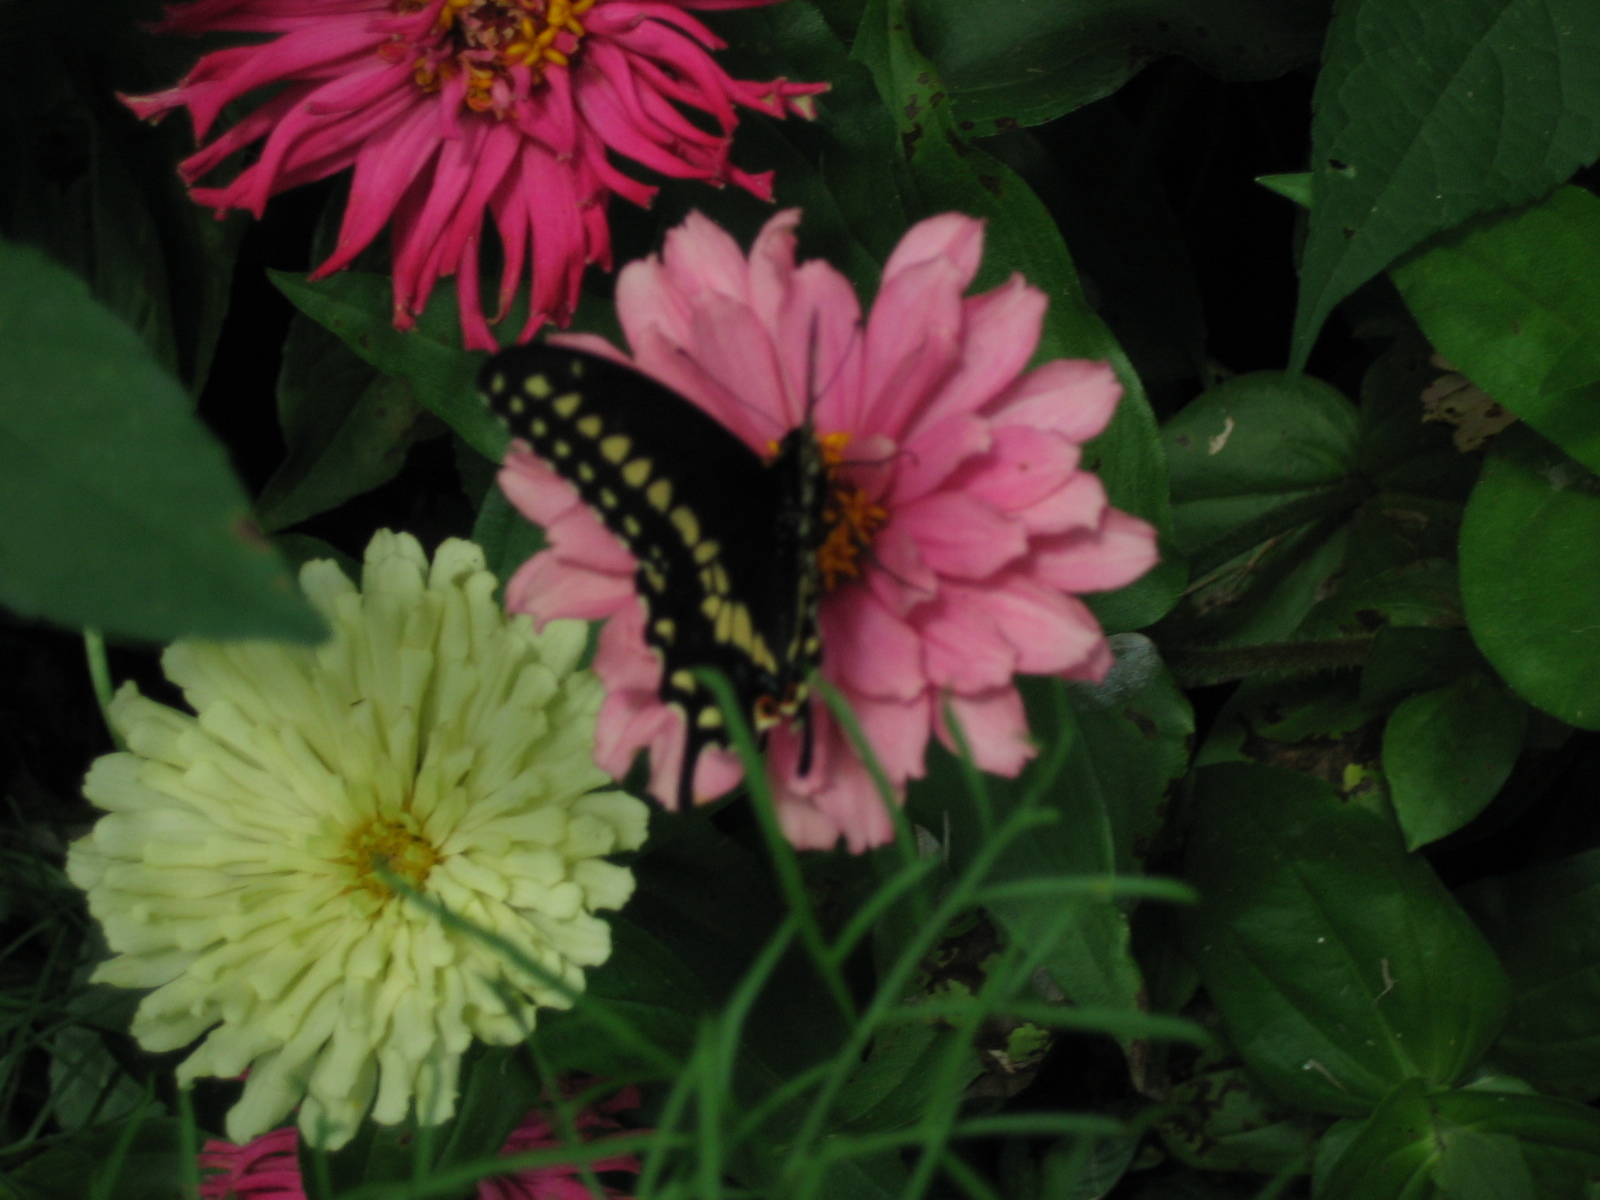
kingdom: Animalia
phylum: Arthropoda
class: Insecta
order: Lepidoptera
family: Papilionidae
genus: Papilio
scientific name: Papilio polyxenes
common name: Black swallowtail
